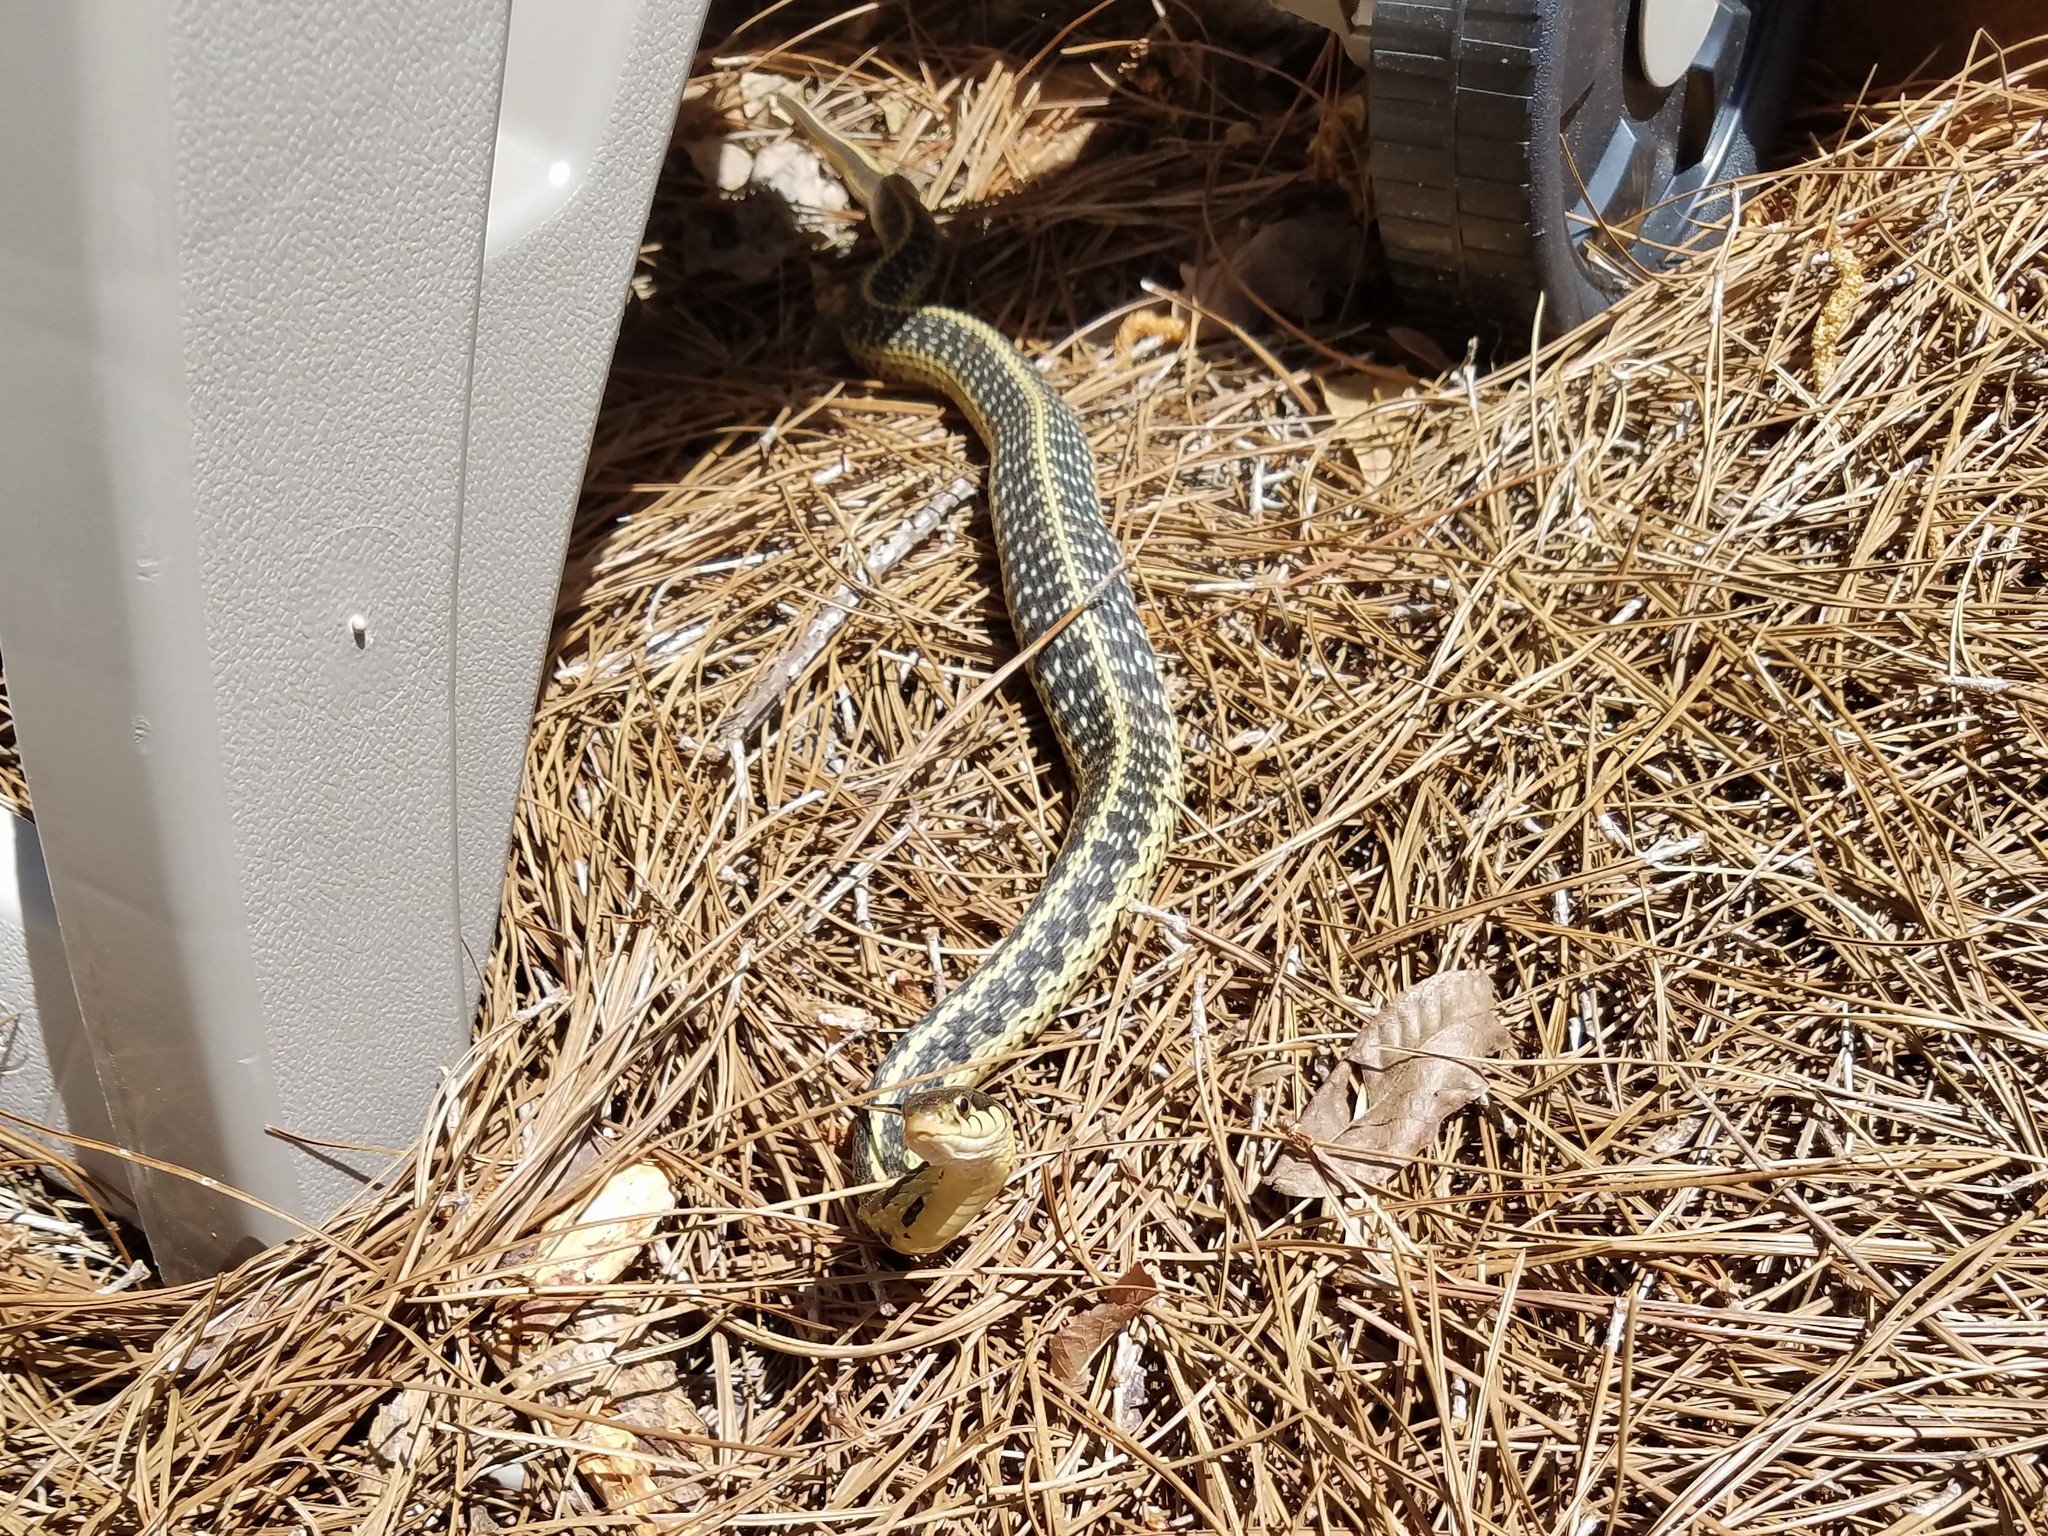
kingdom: Animalia
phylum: Chordata
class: Squamata
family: Colubridae
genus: Thamnophis
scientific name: Thamnophis sirtalis
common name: Common garter snake
